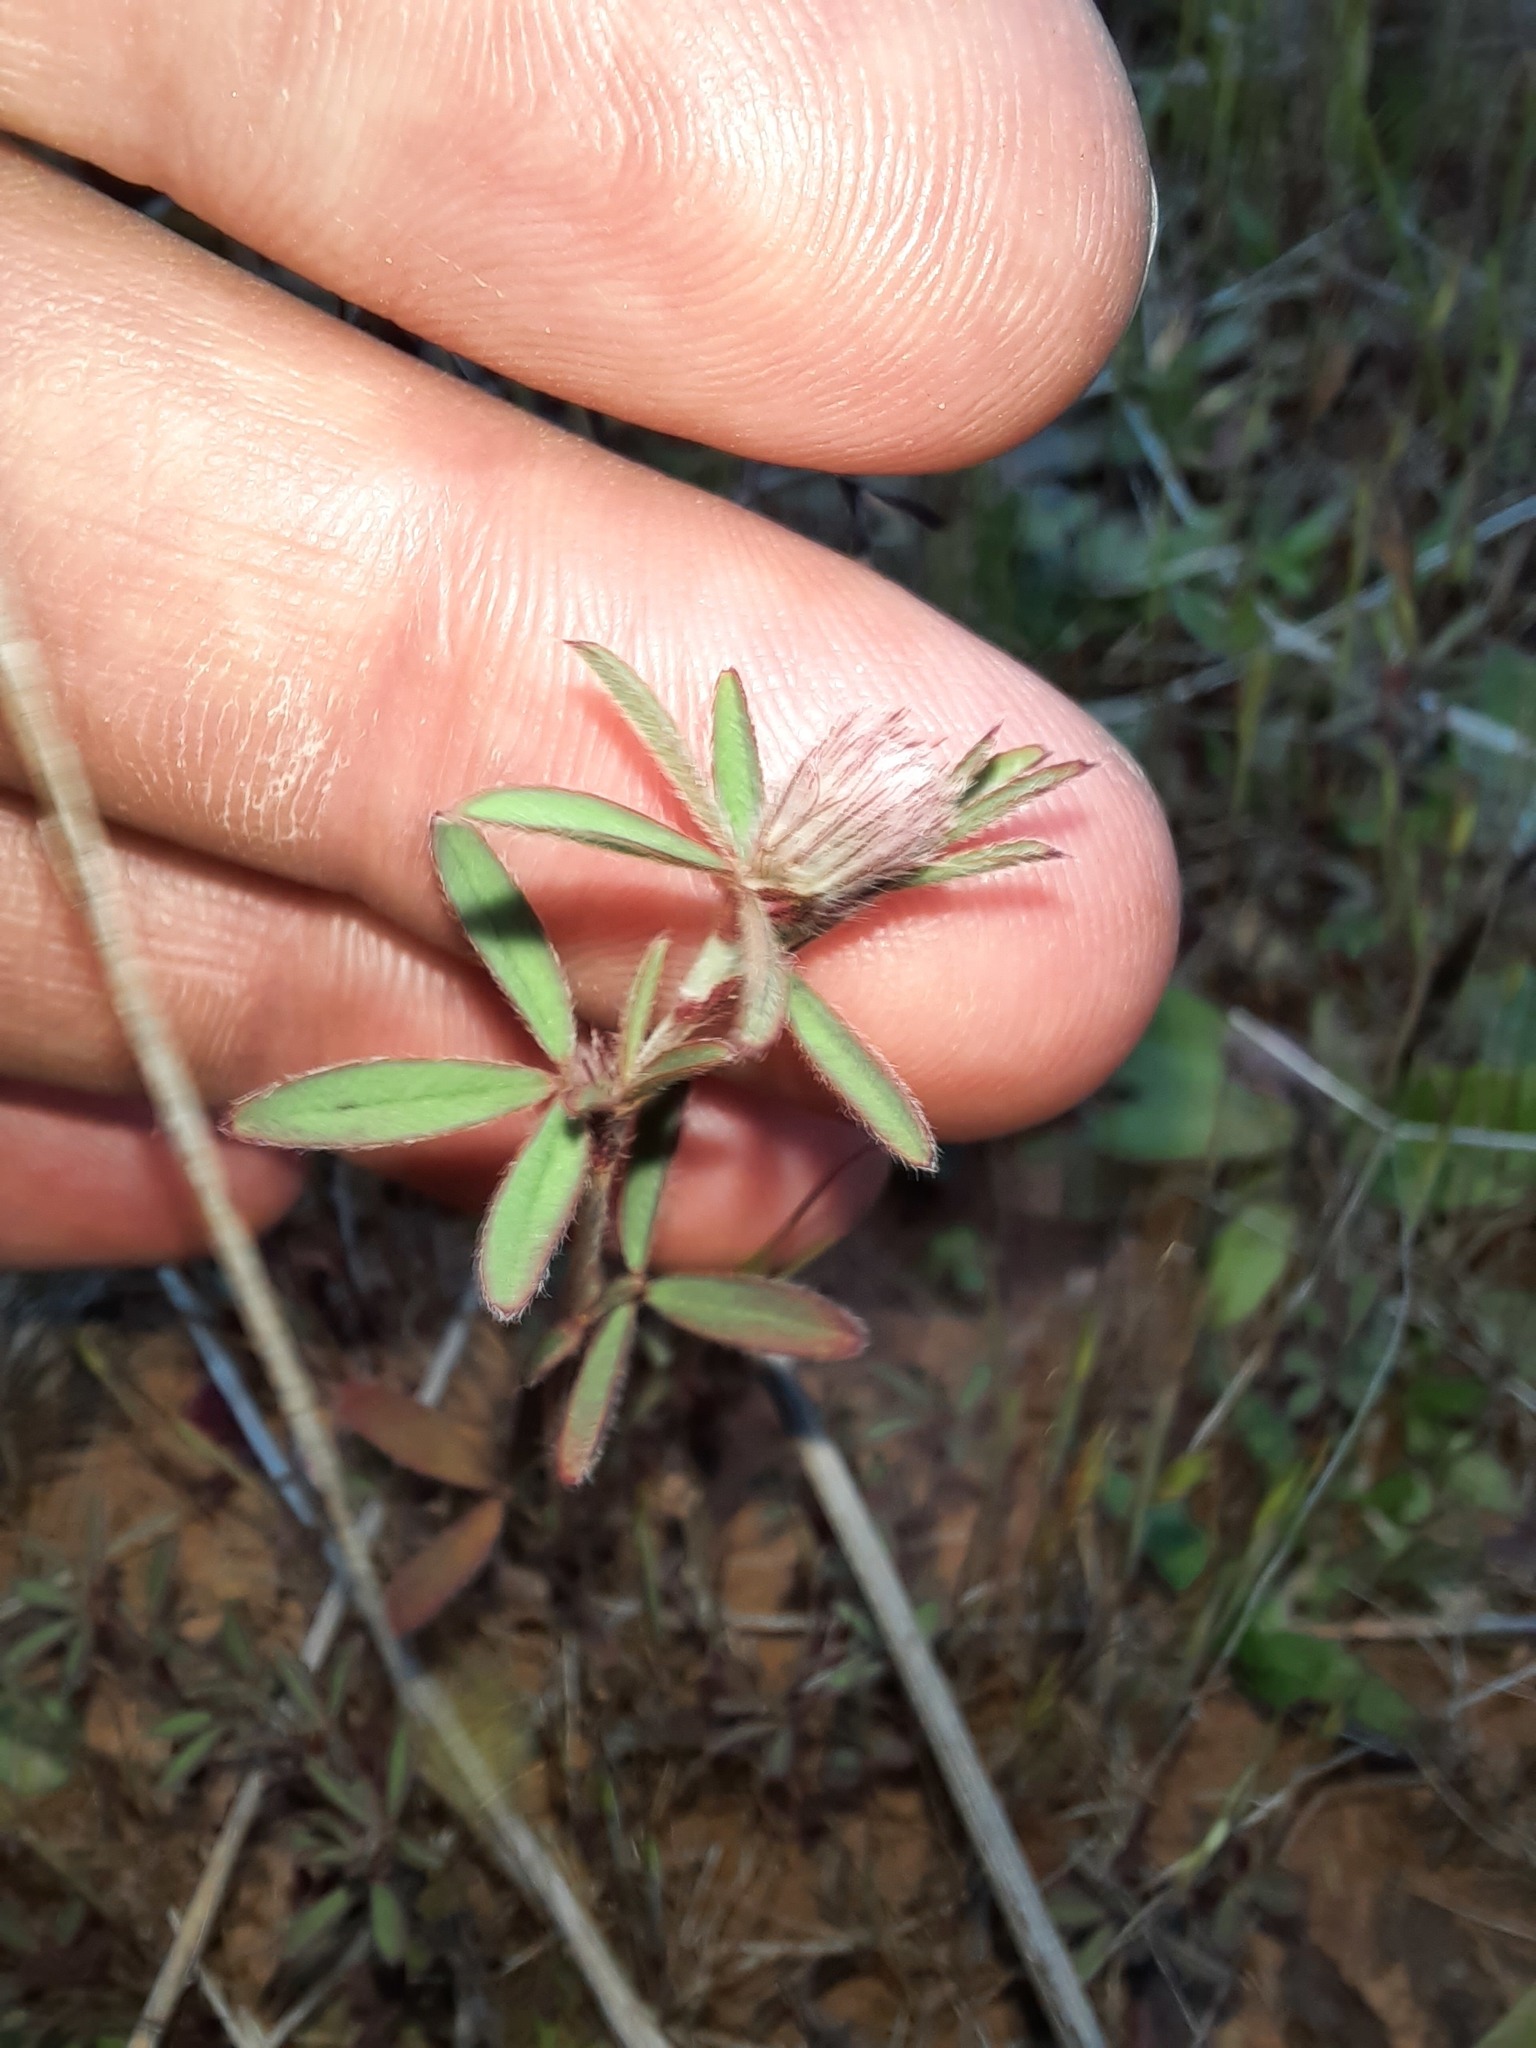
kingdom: Plantae
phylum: Tracheophyta
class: Magnoliopsida
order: Fabales
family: Fabaceae
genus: Trifolium
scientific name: Trifolium arvense
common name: Hare's-foot clover
